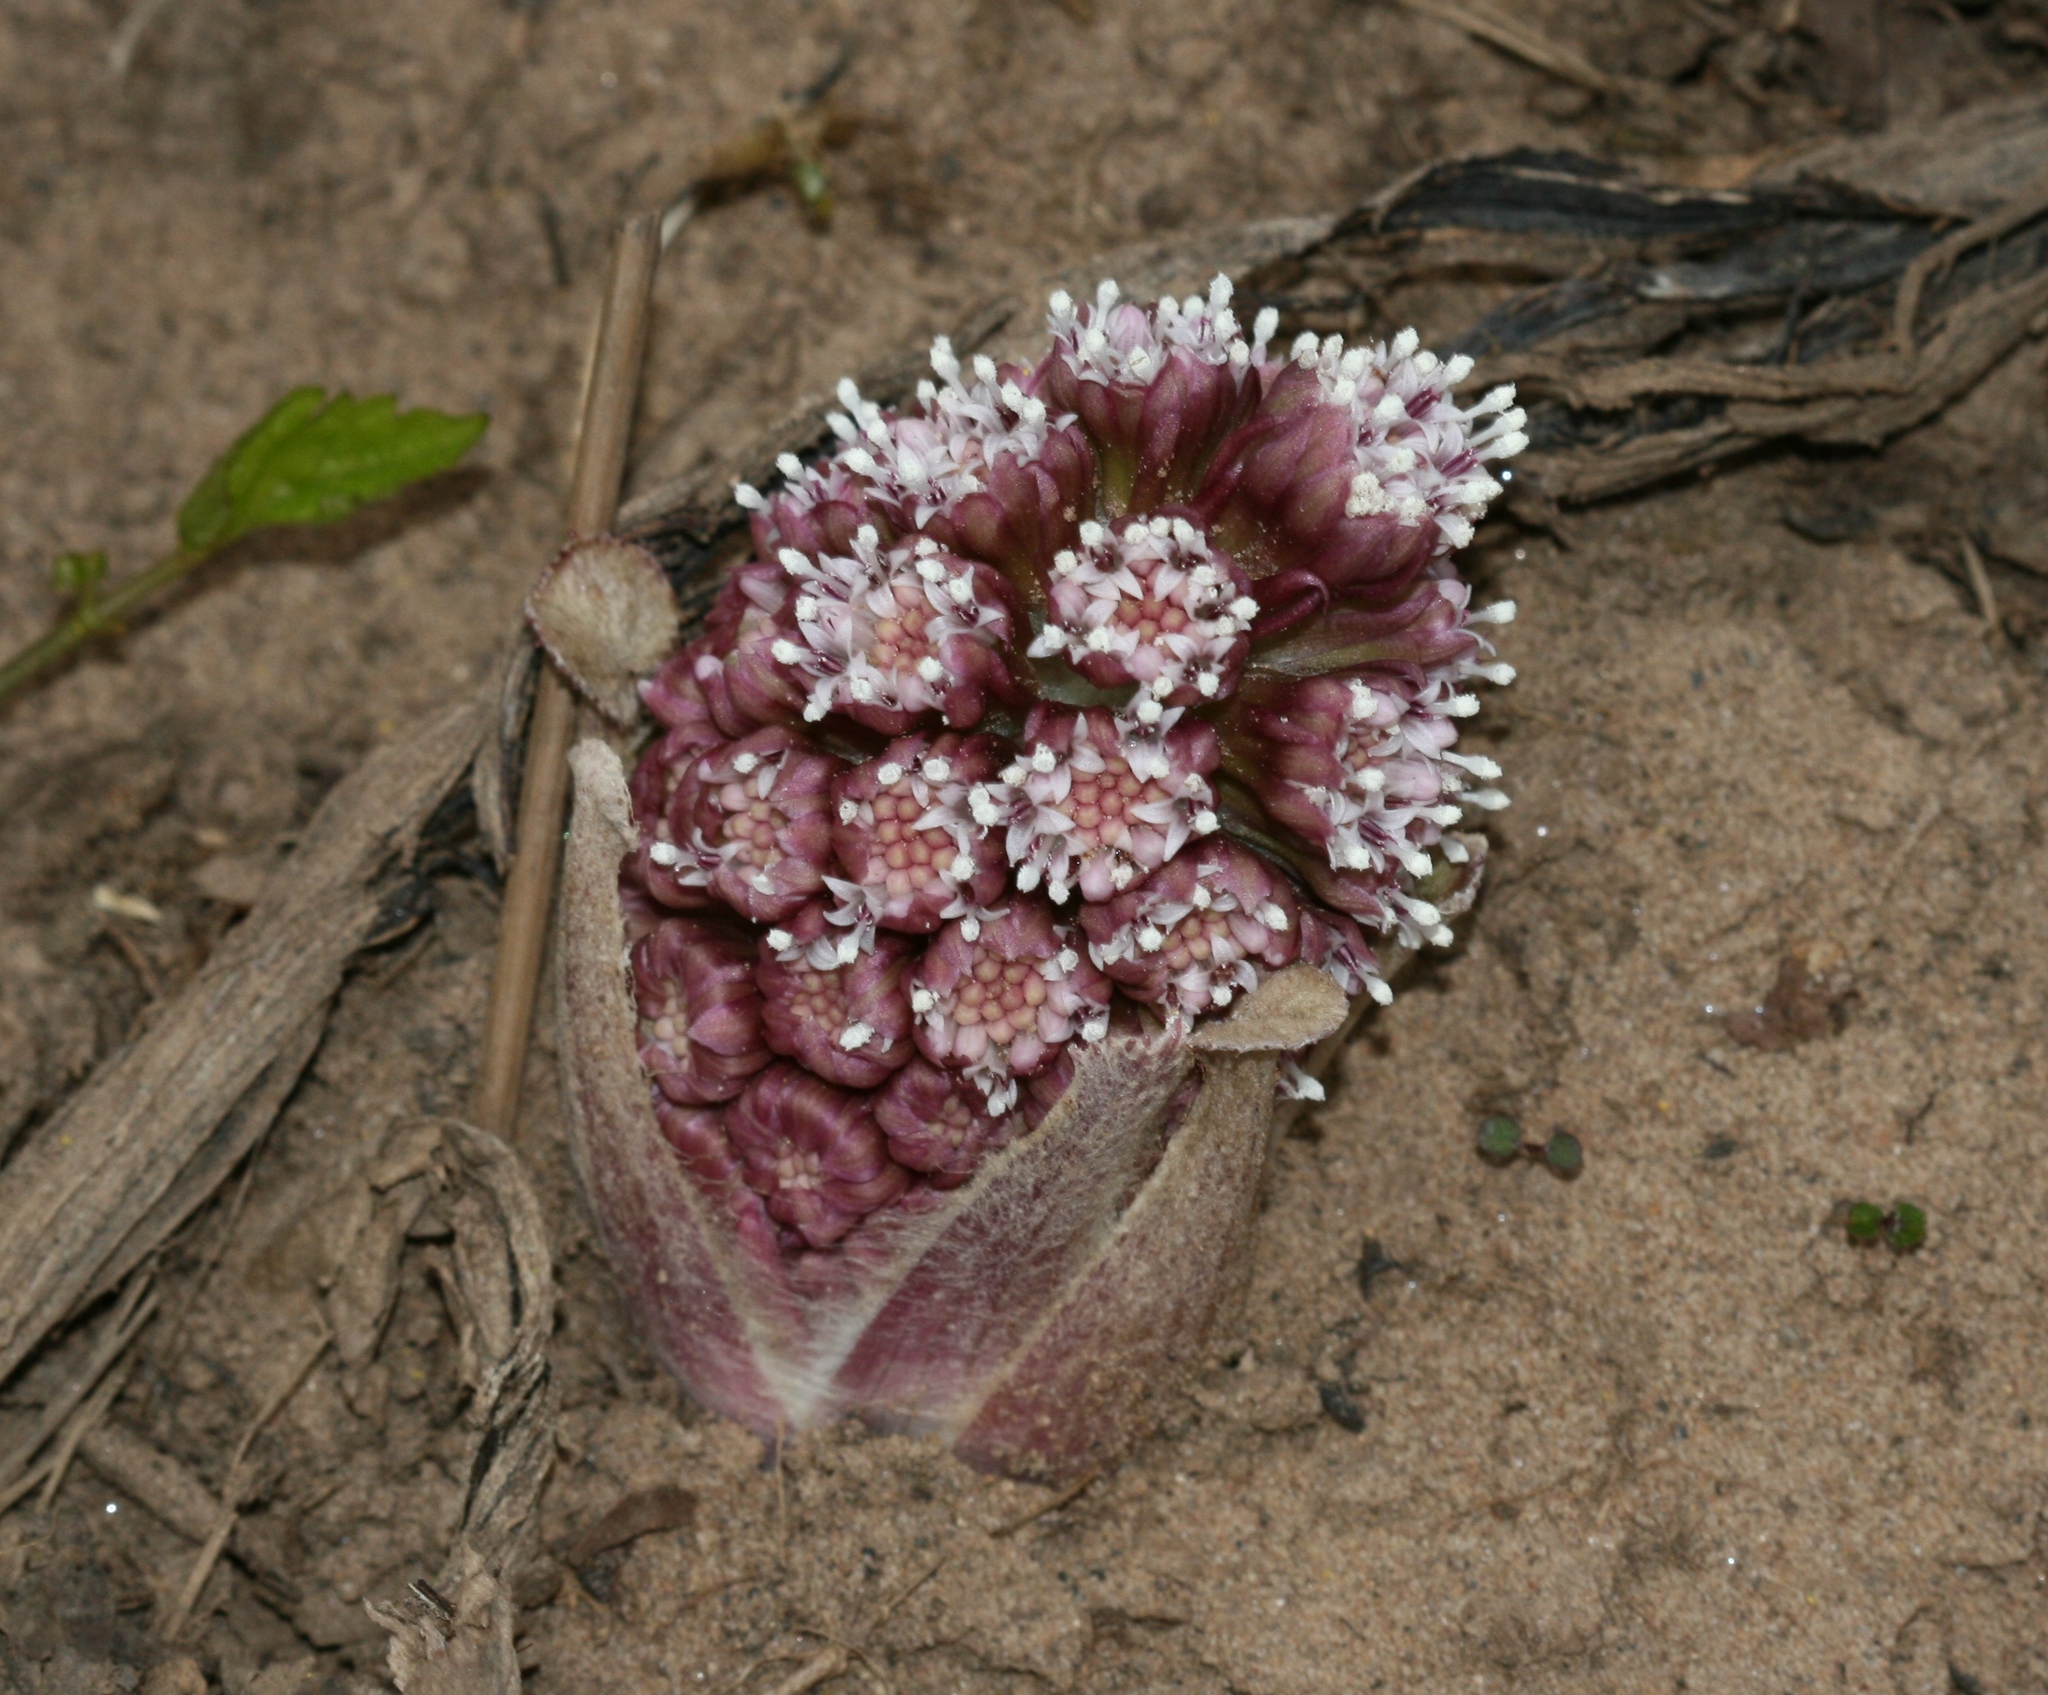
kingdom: Plantae
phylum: Tracheophyta
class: Magnoliopsida
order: Asterales
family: Asteraceae
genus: Petasites
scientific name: Petasites hybridus
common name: Butterbur
